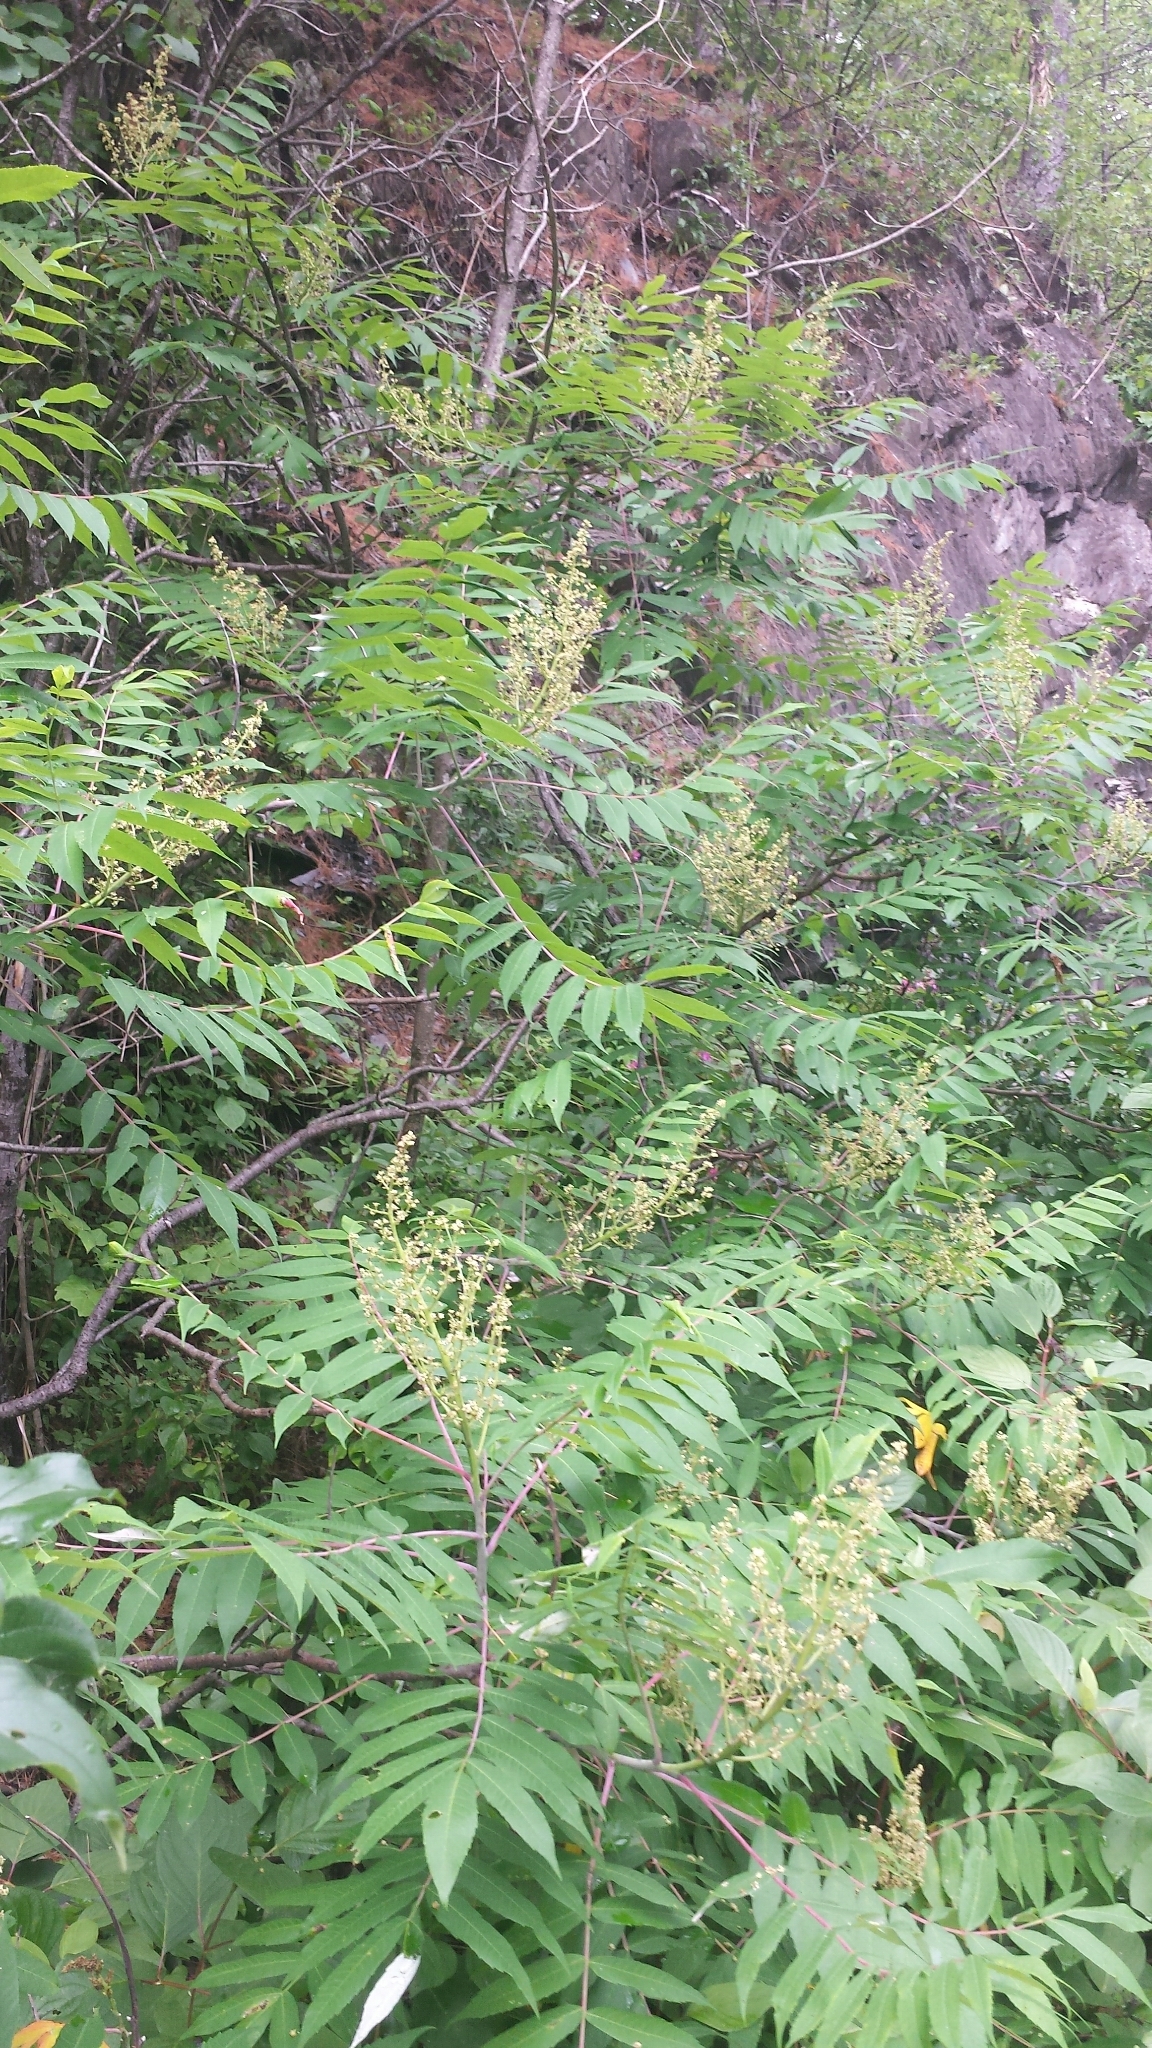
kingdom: Plantae
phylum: Tracheophyta
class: Magnoliopsida
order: Sapindales
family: Anacardiaceae
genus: Rhus
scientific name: Rhus glabra
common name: Scarlet sumac
